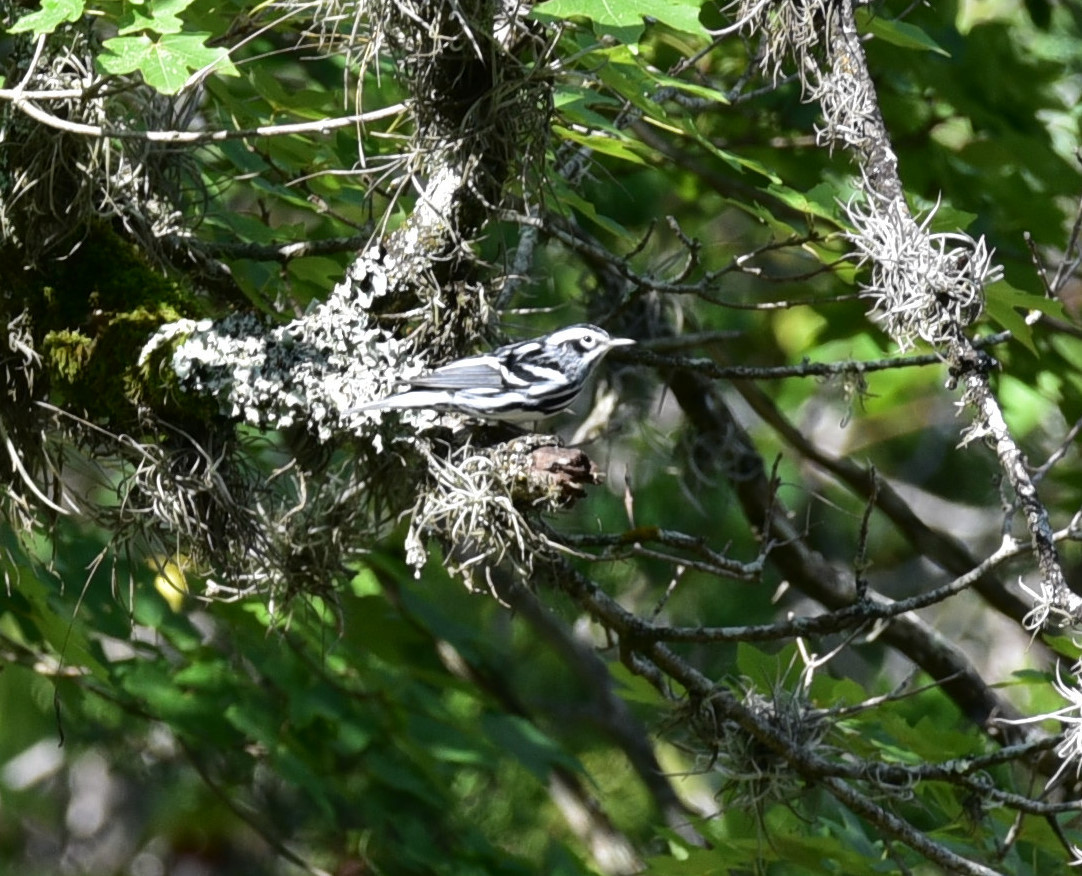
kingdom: Animalia
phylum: Chordata
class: Aves
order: Passeriformes
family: Parulidae
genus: Mniotilta
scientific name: Mniotilta varia
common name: Black-and-white warbler
